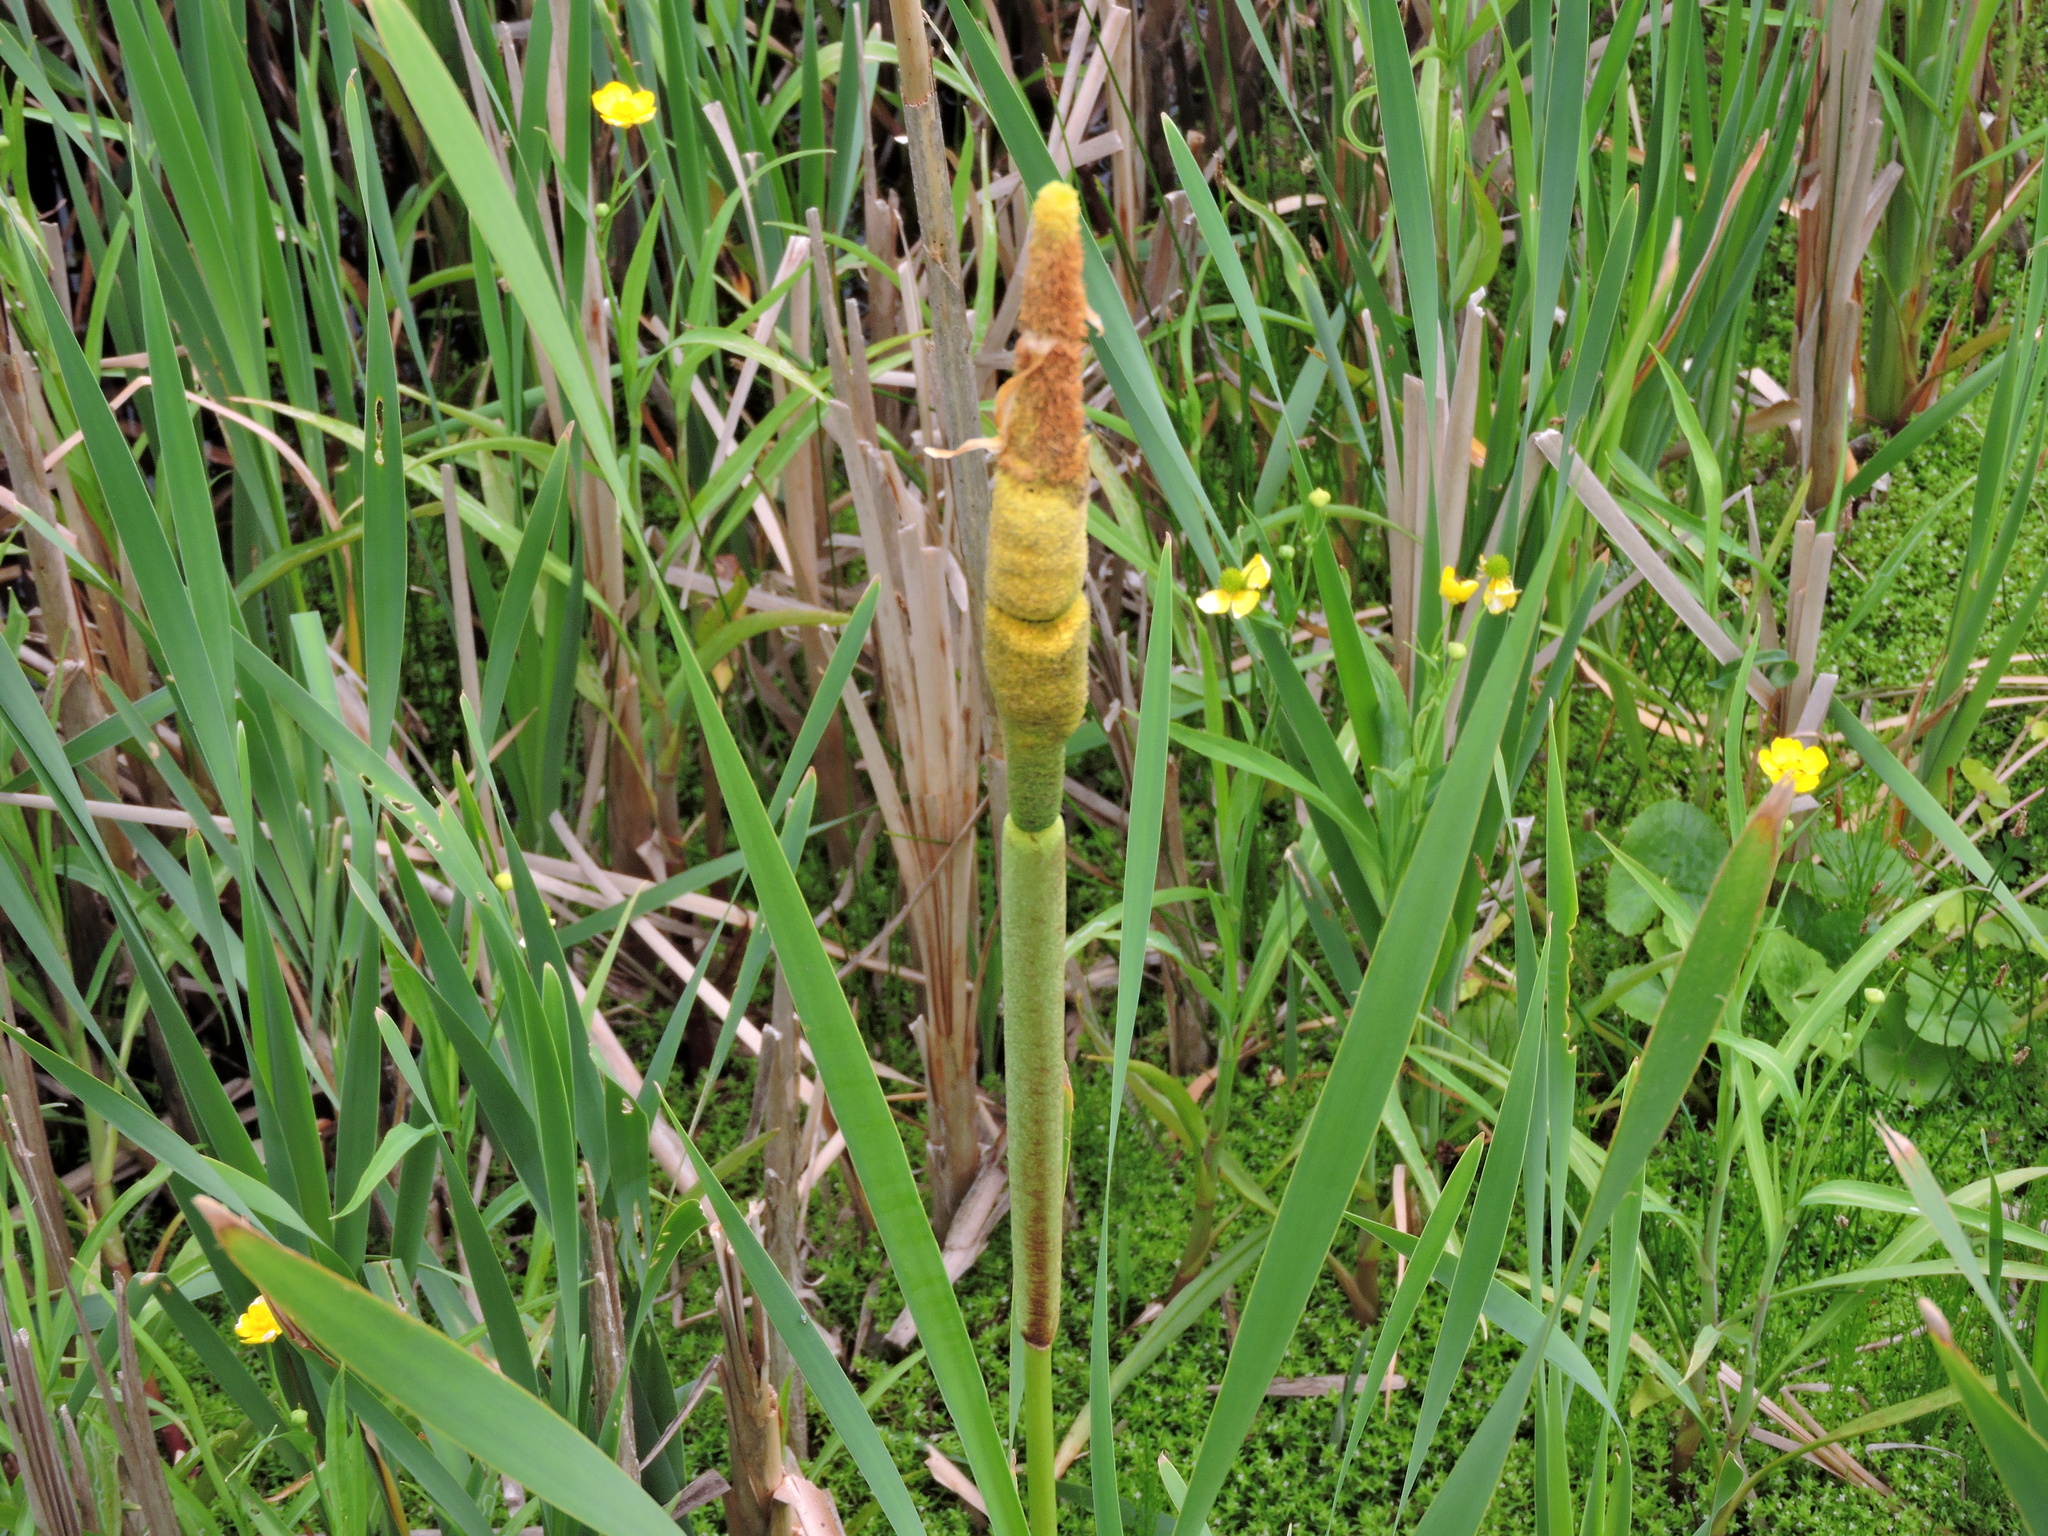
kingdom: Plantae
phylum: Tracheophyta
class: Liliopsida
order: Poales
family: Typhaceae
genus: Typha
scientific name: Typha angustifolia
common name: Lesser bulrush
